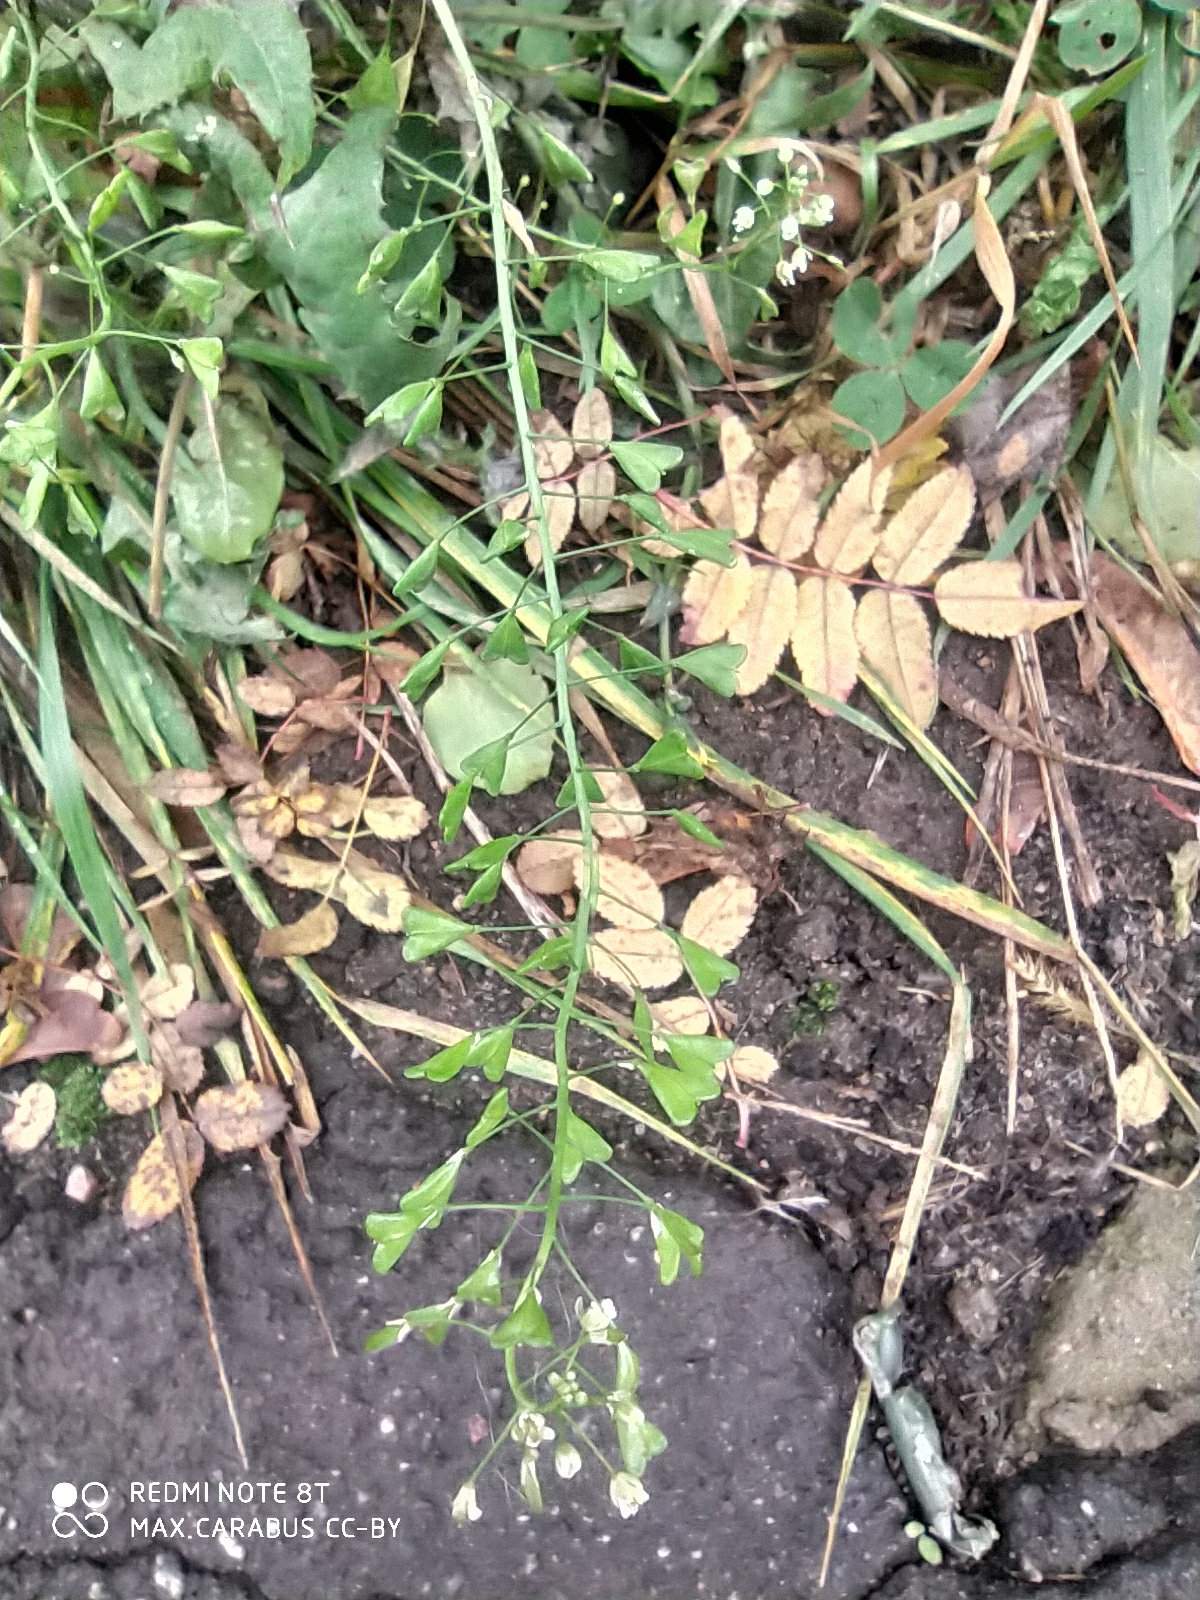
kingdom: Plantae
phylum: Tracheophyta
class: Magnoliopsida
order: Brassicales
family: Brassicaceae
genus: Capsella
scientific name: Capsella bursa-pastoris
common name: Shepherd's purse
